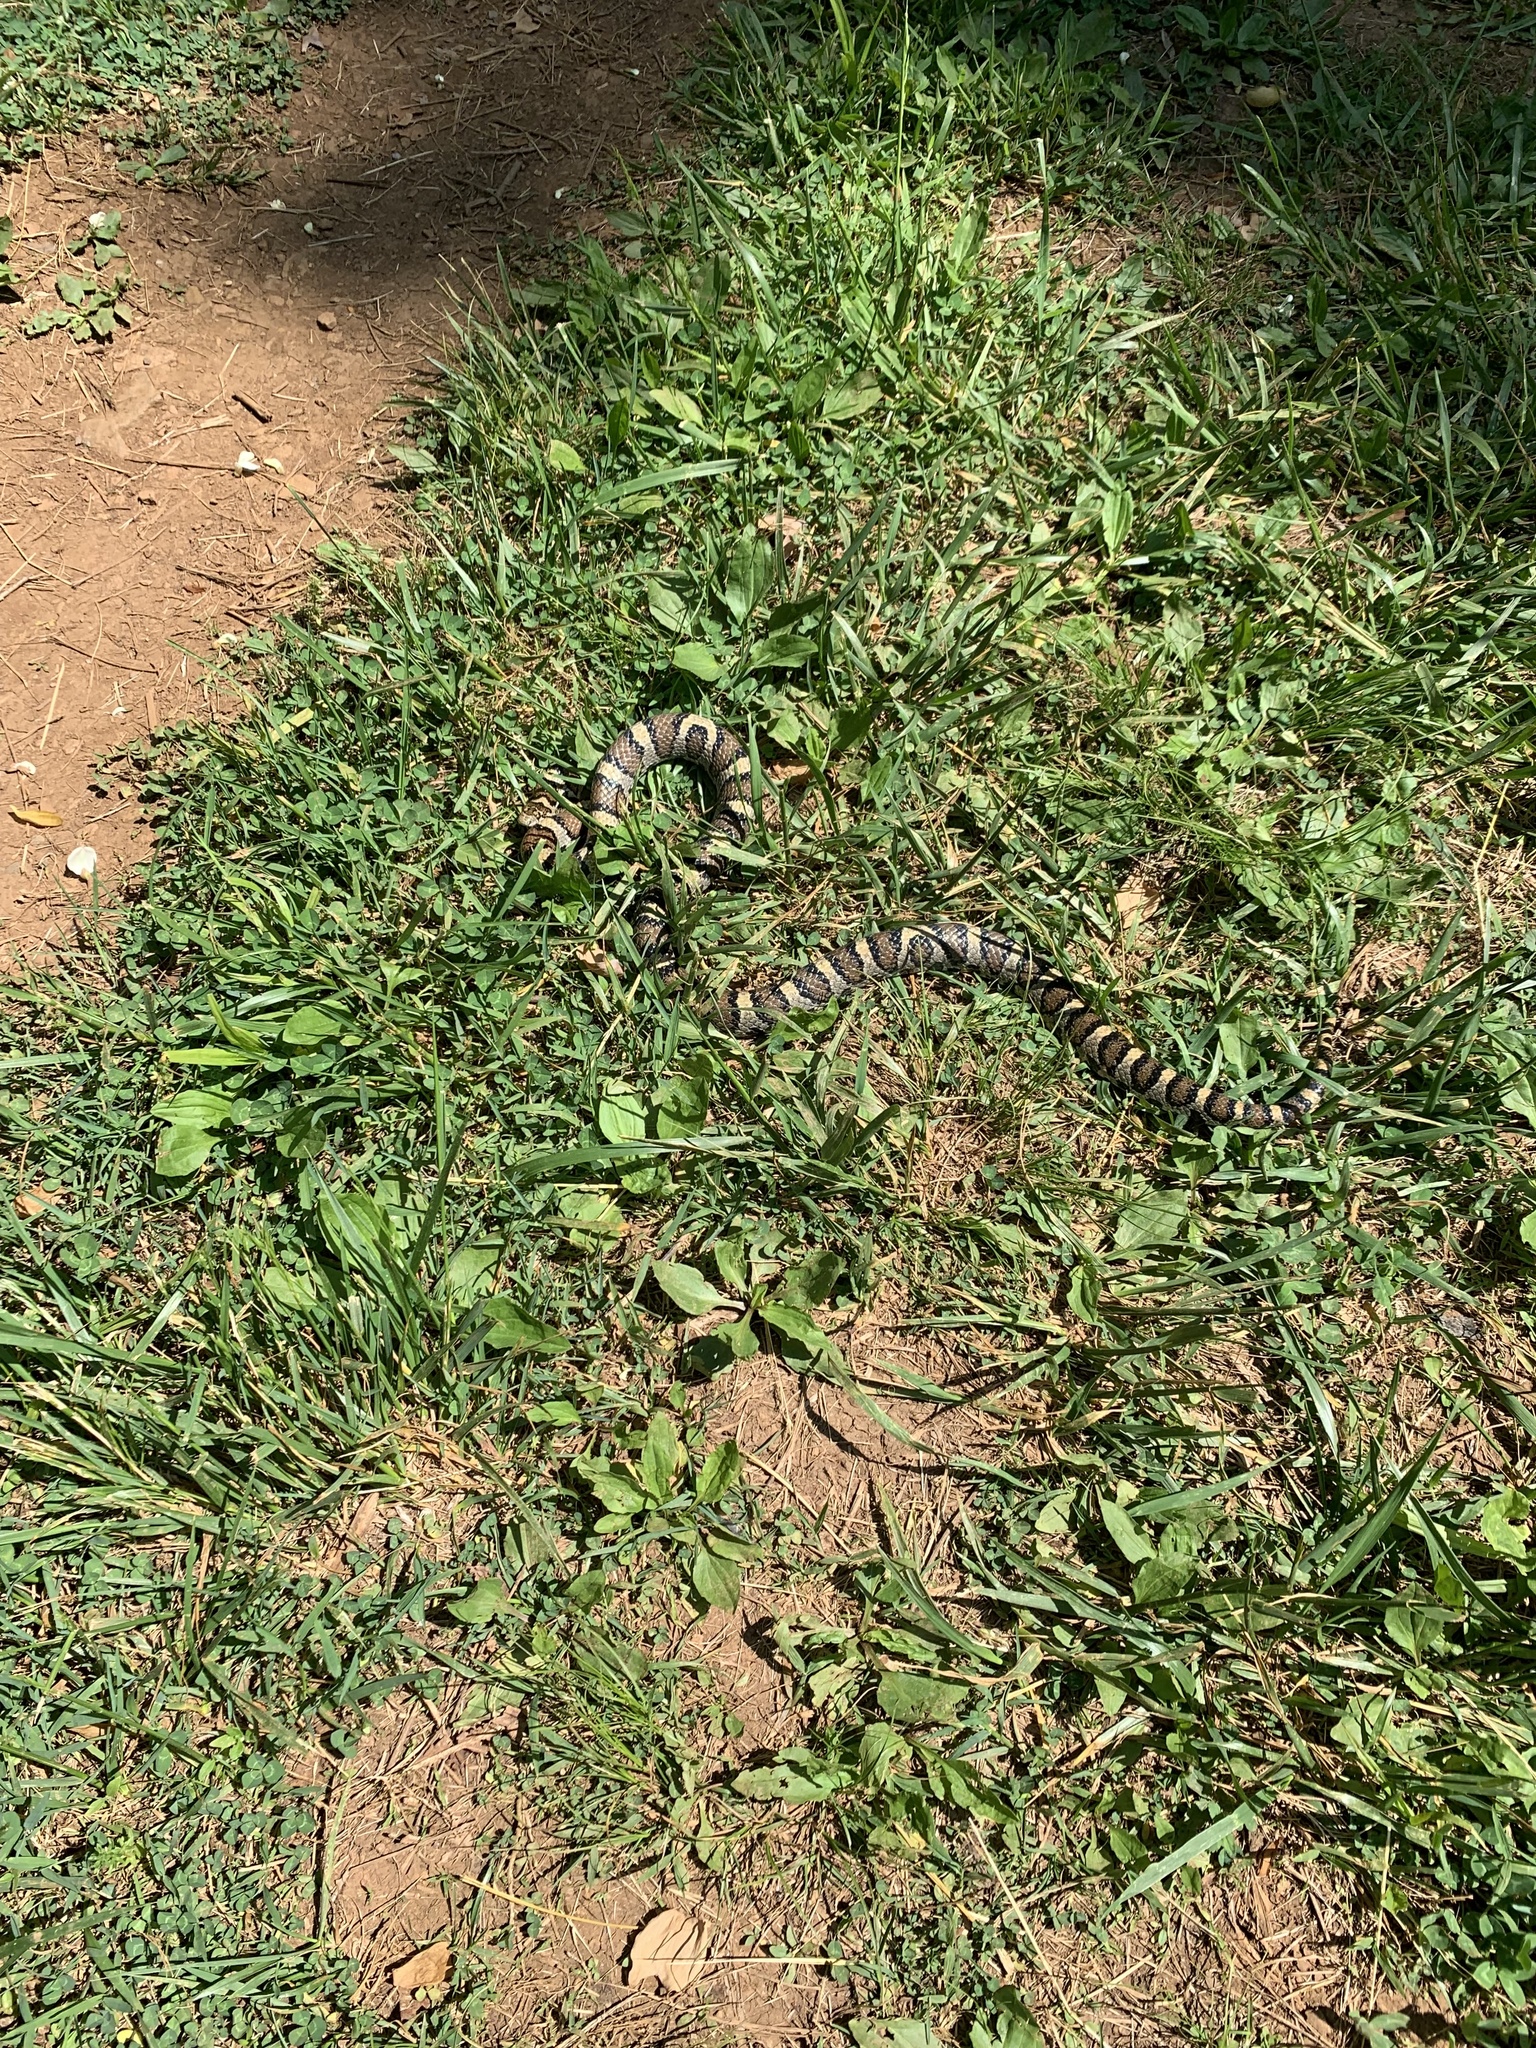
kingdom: Animalia
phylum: Chordata
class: Squamata
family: Colubridae
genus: Lampropeltis
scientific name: Lampropeltis triangulum
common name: Eastern milksnake
